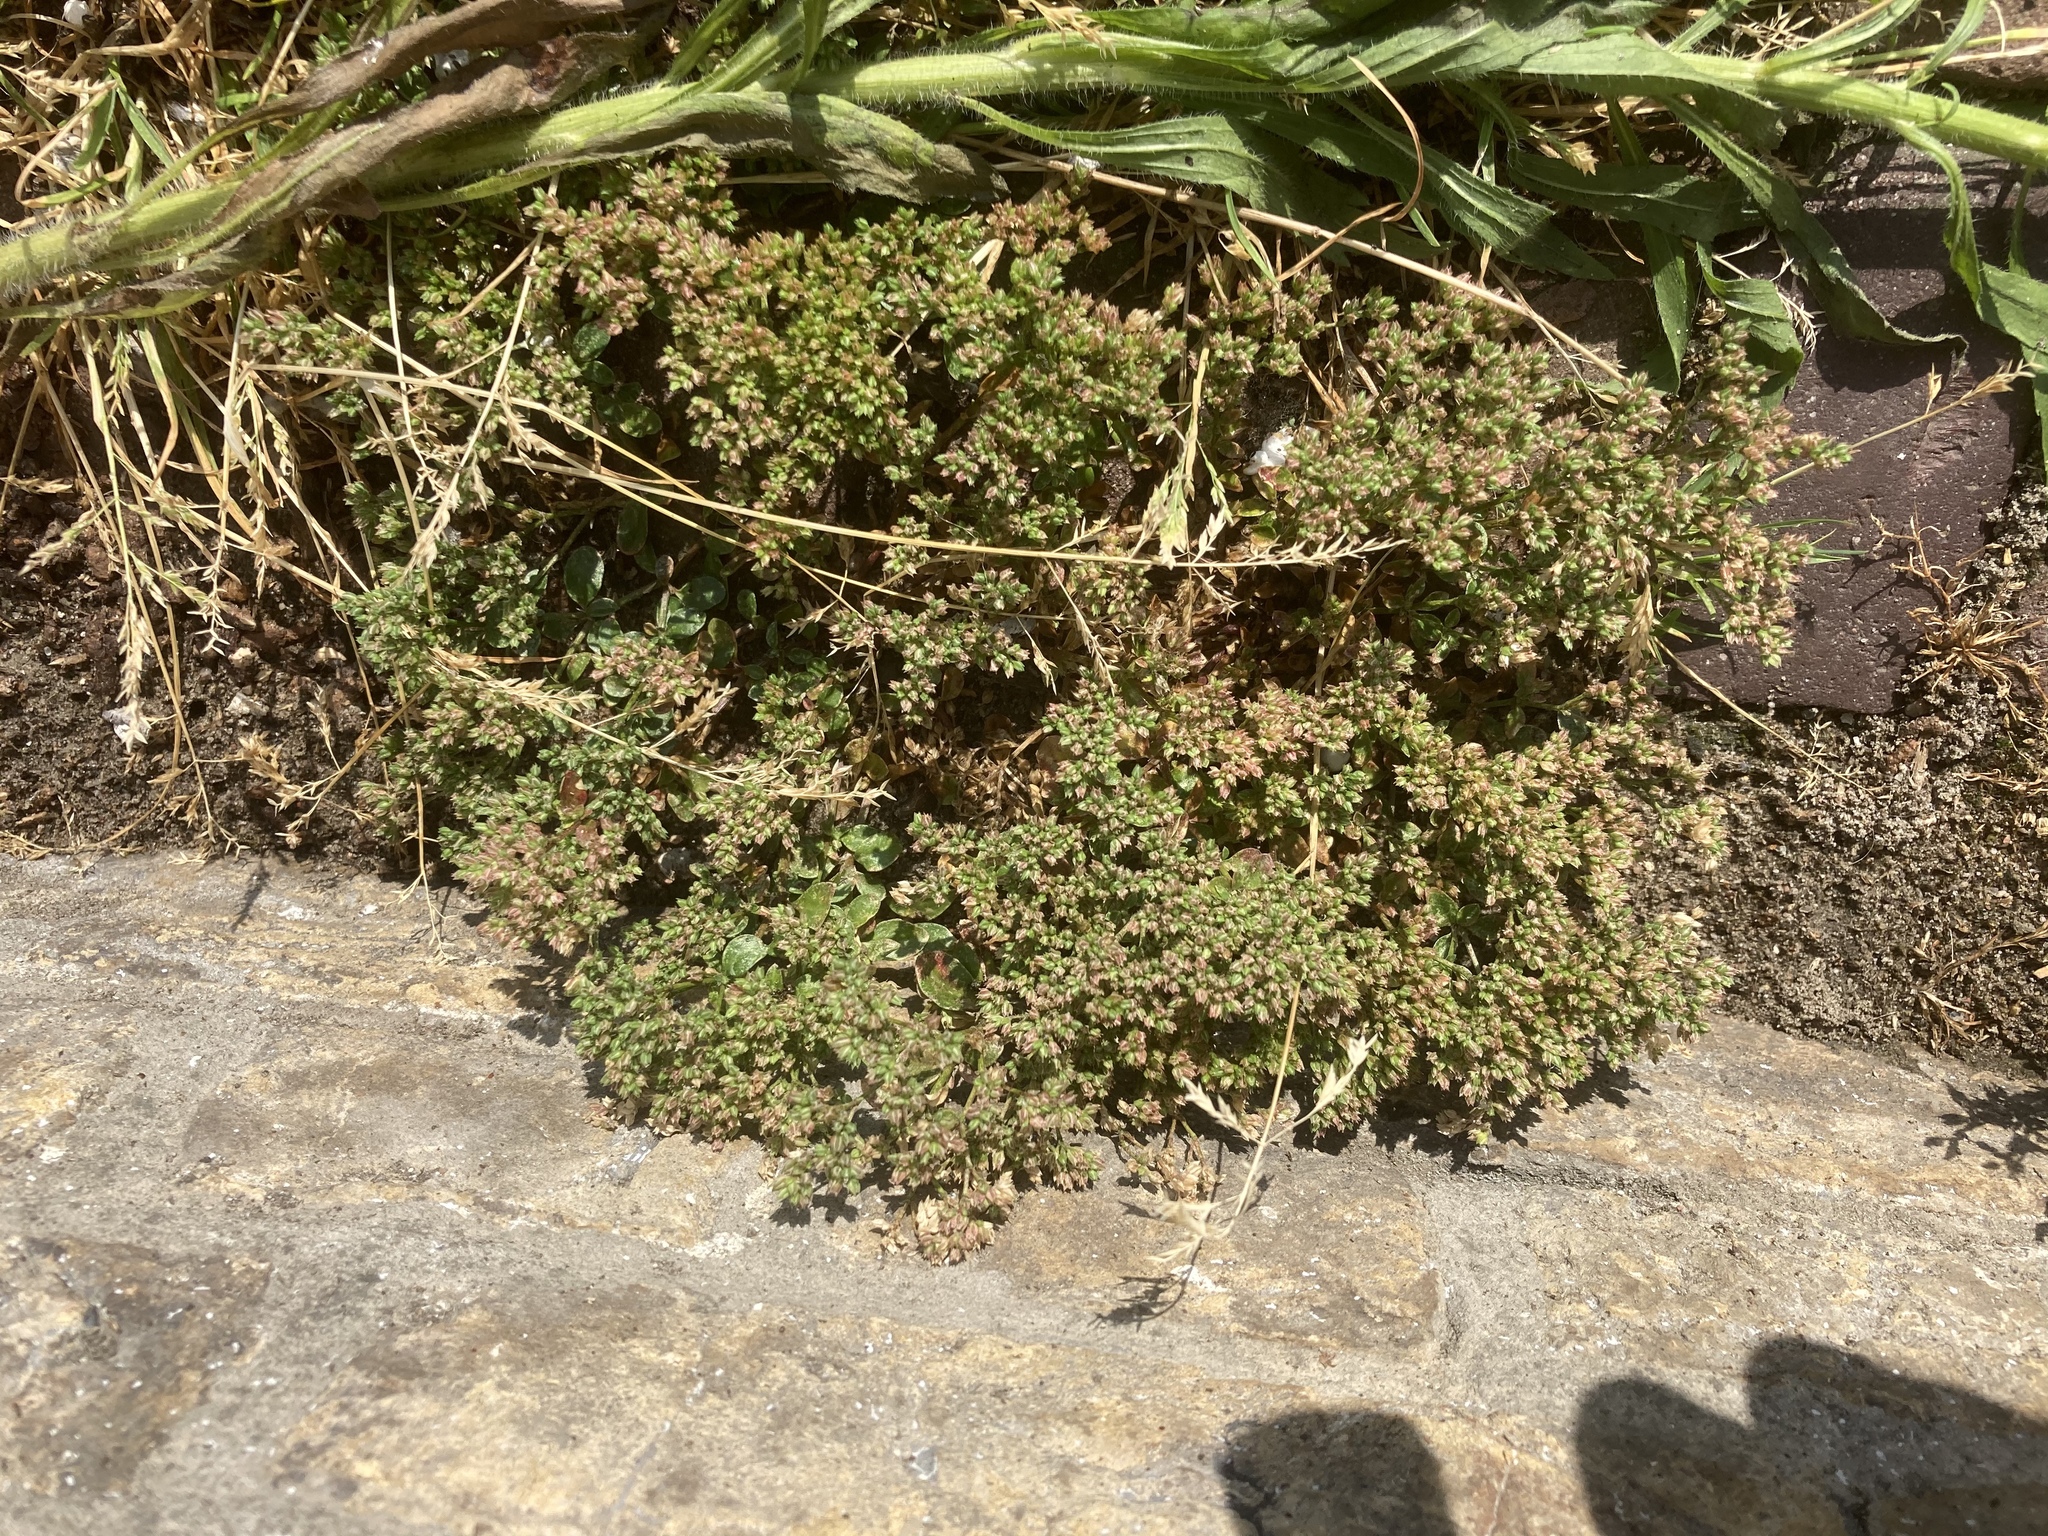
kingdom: Plantae
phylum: Tracheophyta
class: Magnoliopsida
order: Caryophyllales
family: Caryophyllaceae
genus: Polycarpon
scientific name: Polycarpon tetraphyllum
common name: Four-leaved all-seed
